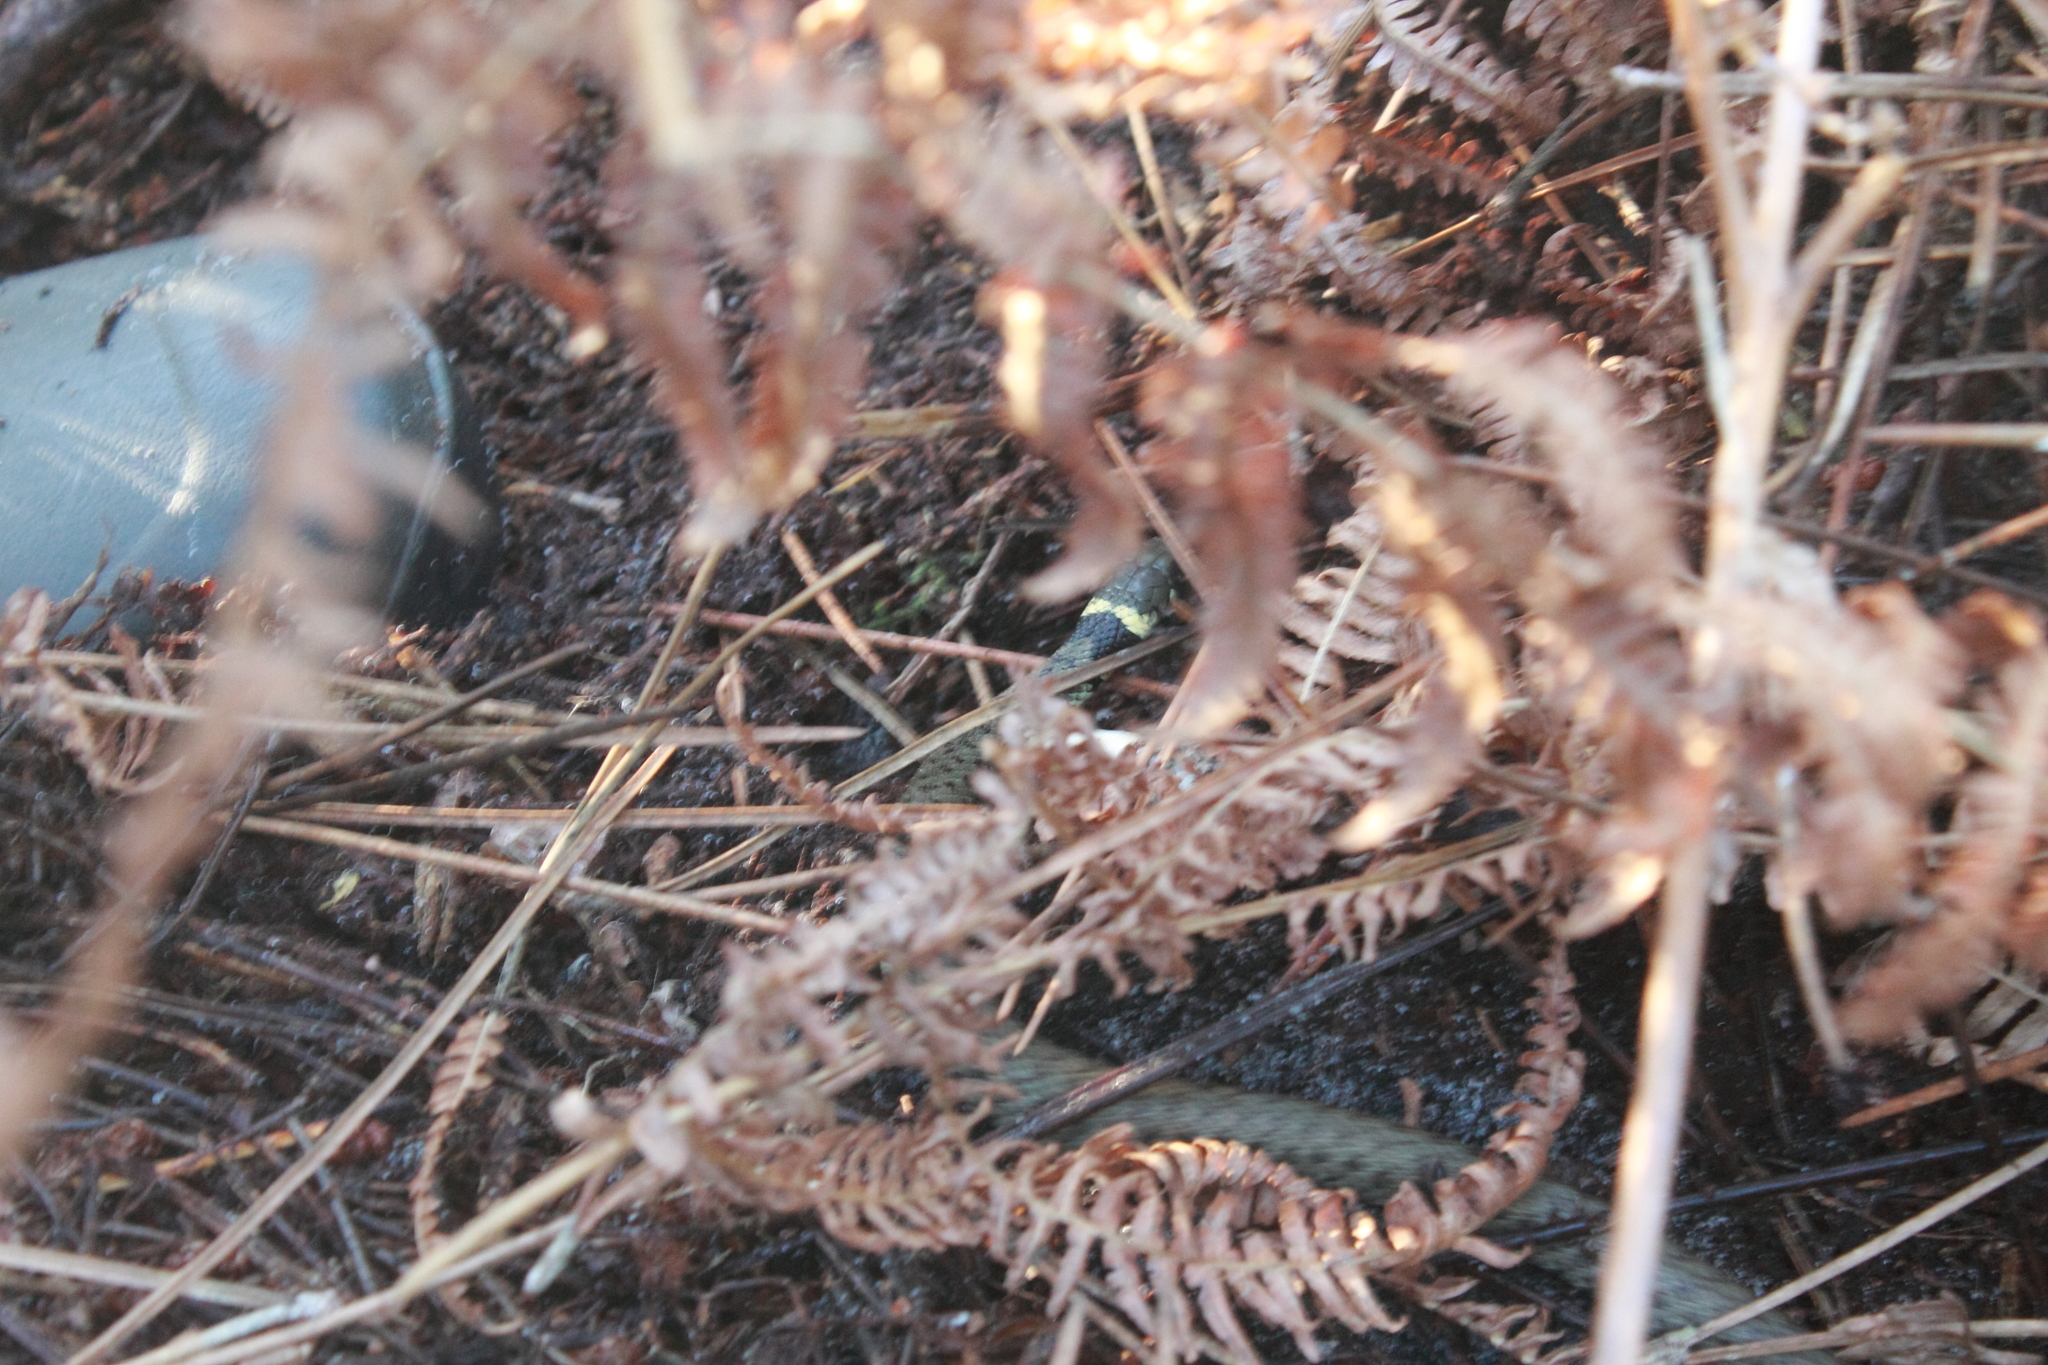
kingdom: Animalia
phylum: Chordata
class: Squamata
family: Colubridae
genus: Natrix
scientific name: Natrix helvetica
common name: Banded grass snake
